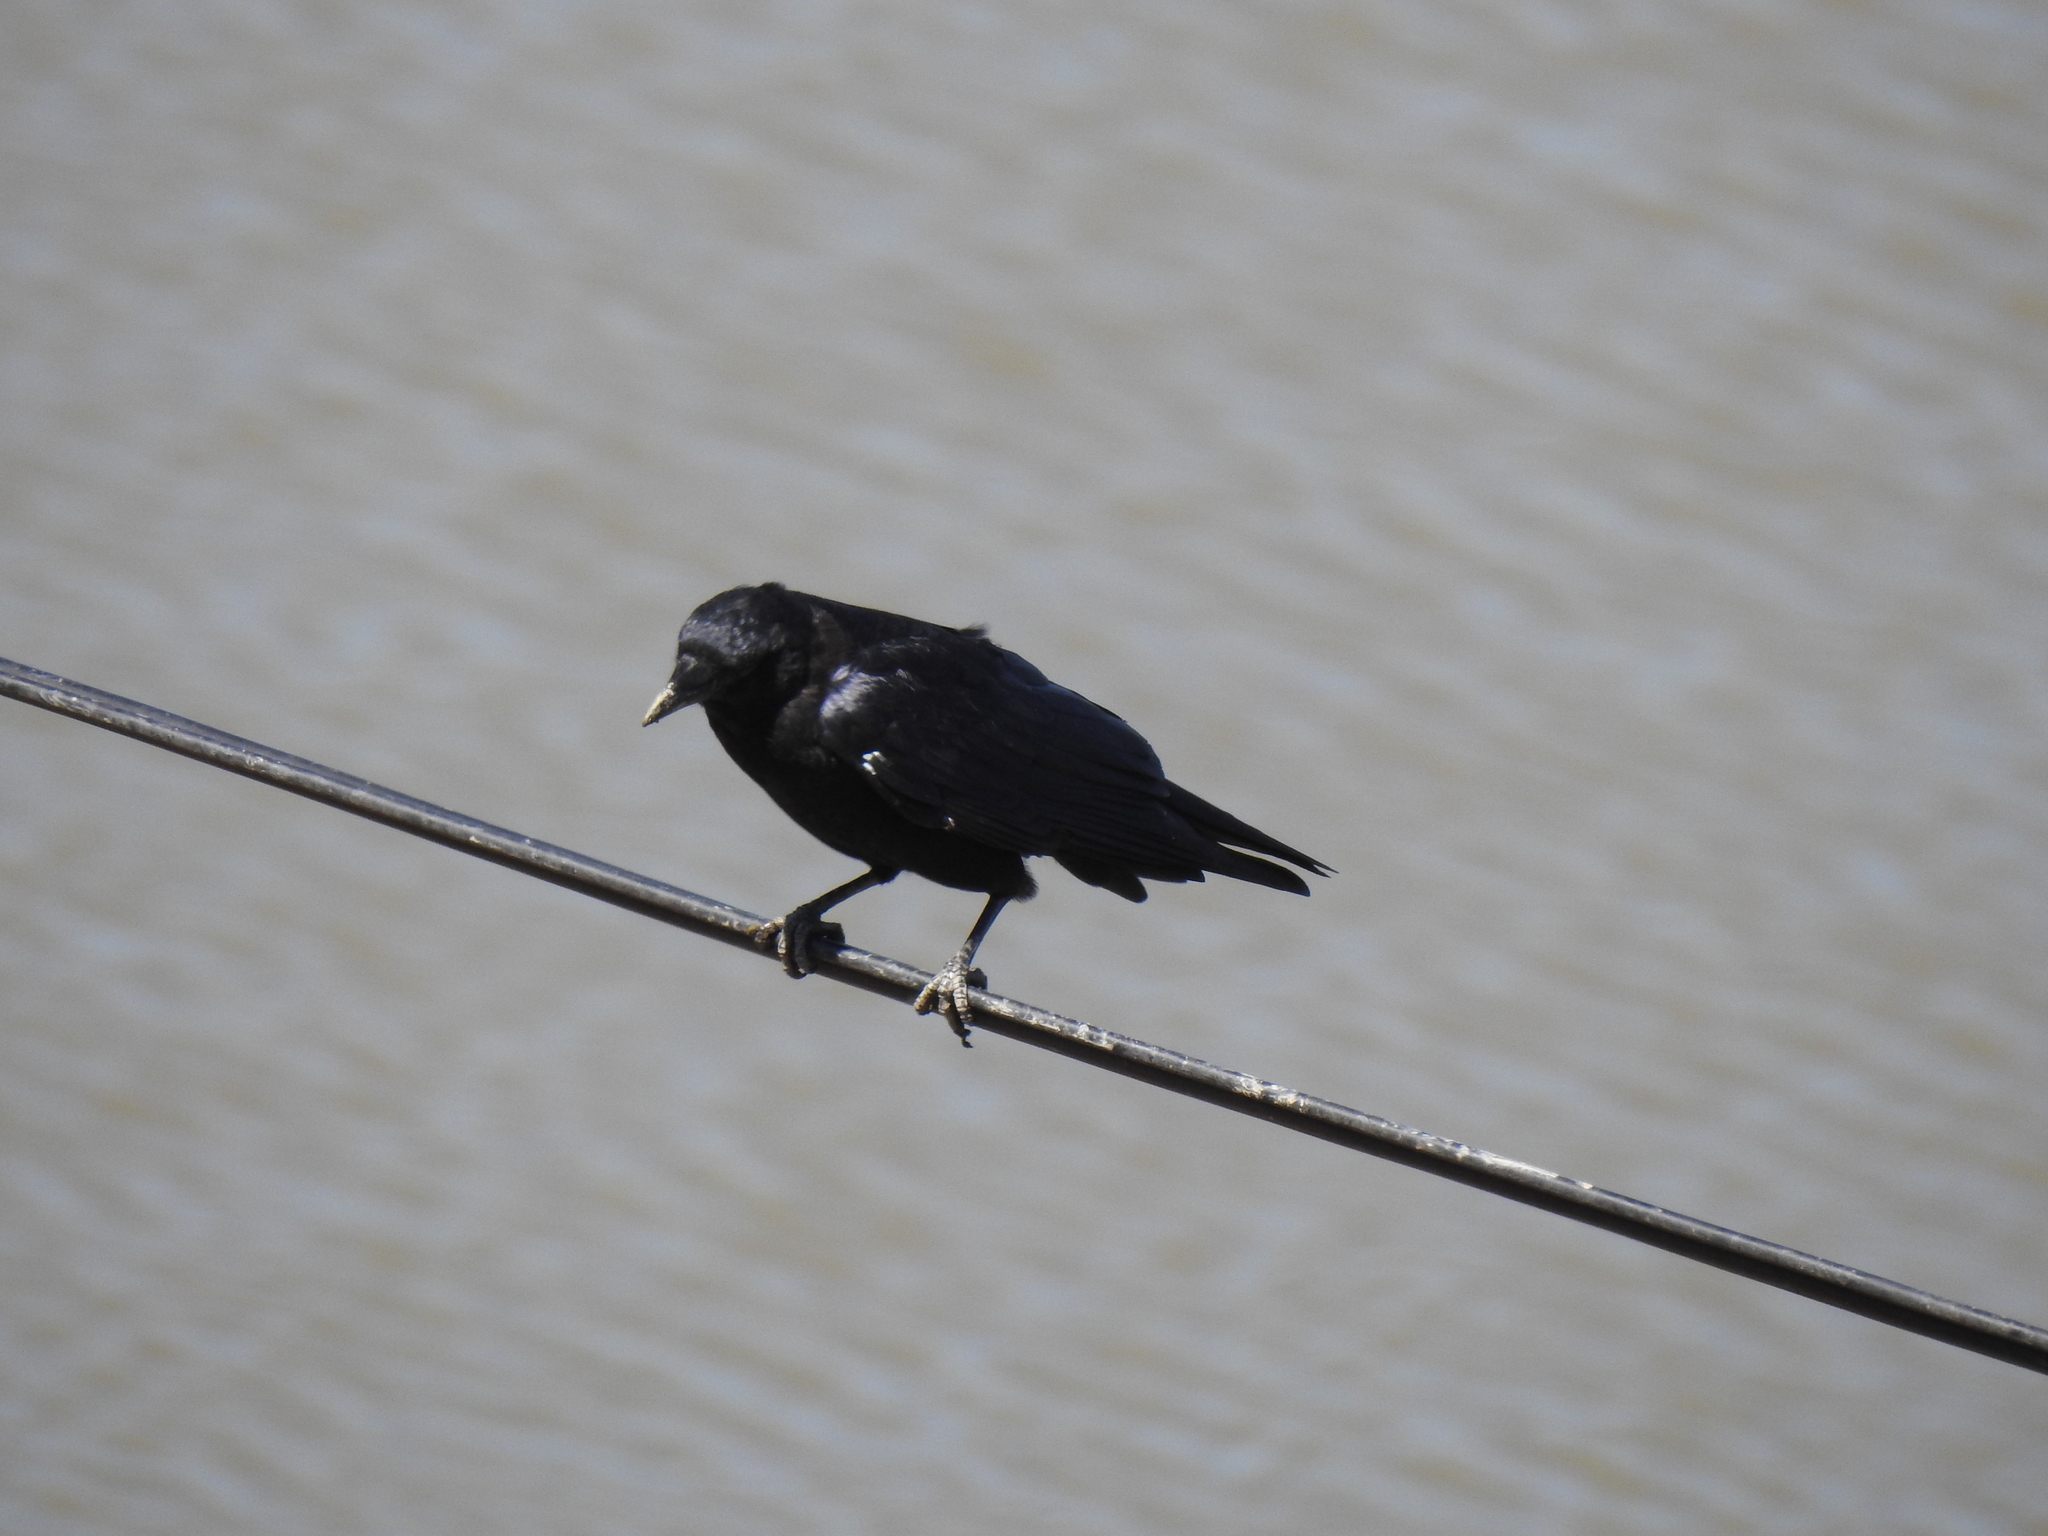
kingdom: Animalia
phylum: Chordata
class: Aves
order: Passeriformes
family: Icteridae
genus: Euphagus
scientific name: Euphagus cyanocephalus
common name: Brewer's blackbird
